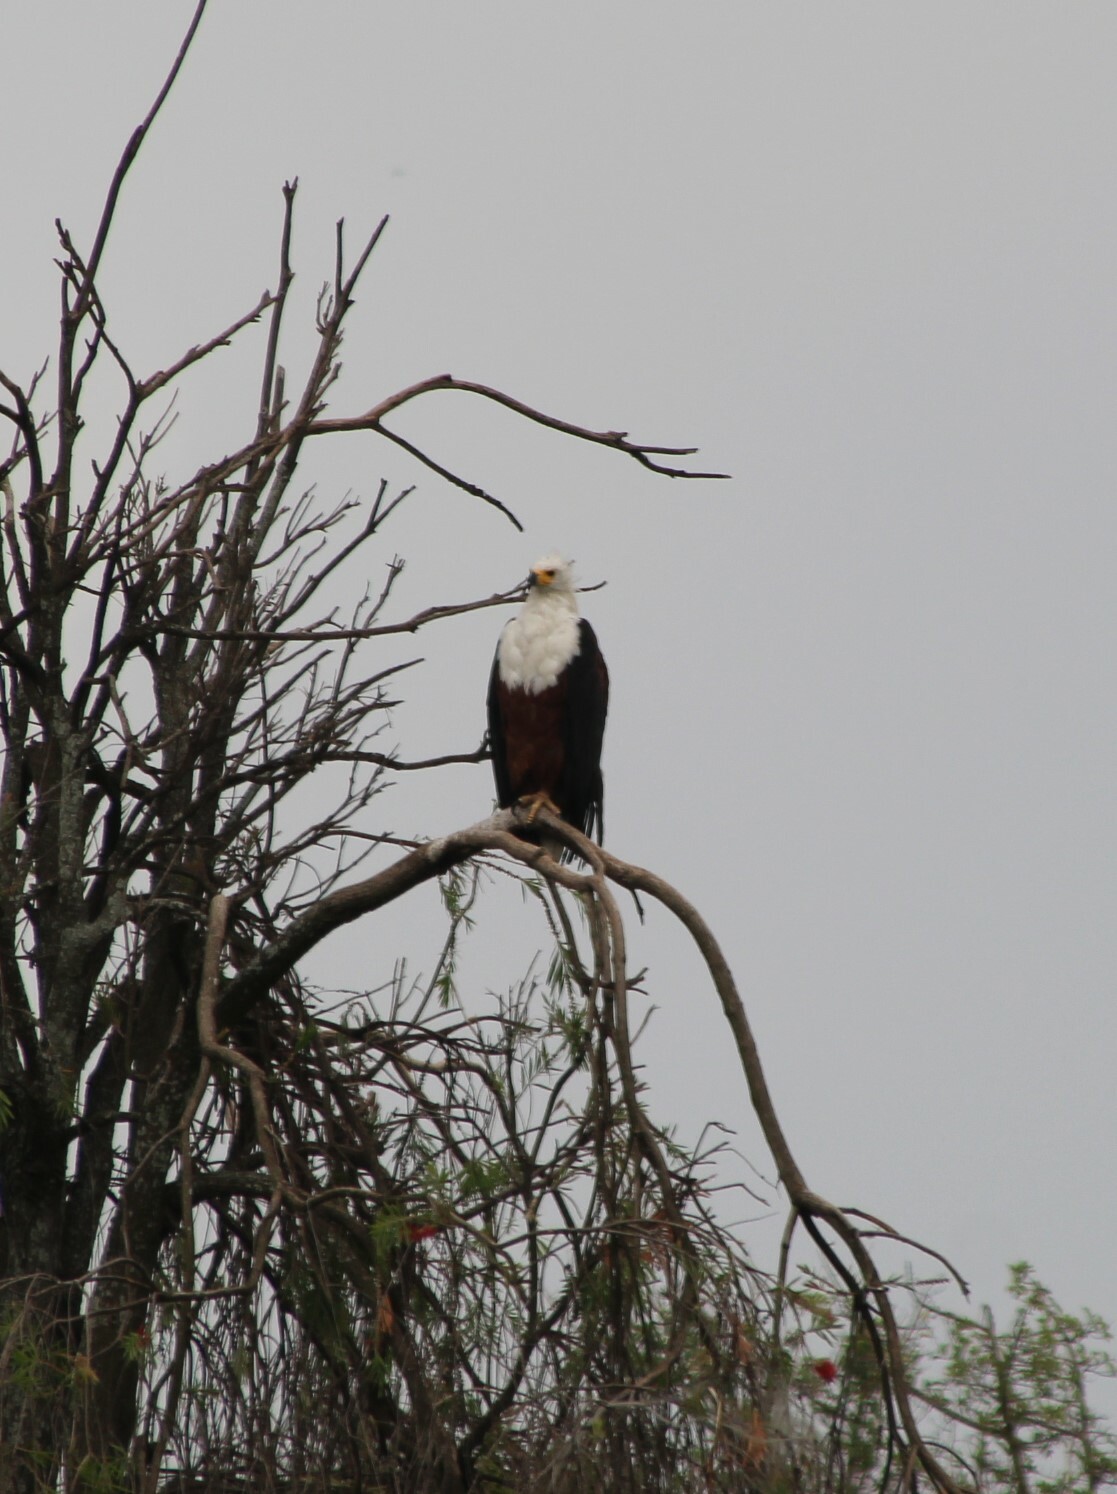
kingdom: Animalia
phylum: Chordata
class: Aves
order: Accipitriformes
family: Accipitridae
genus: Haliaeetus
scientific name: Haliaeetus vocifer
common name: African fish eagle
